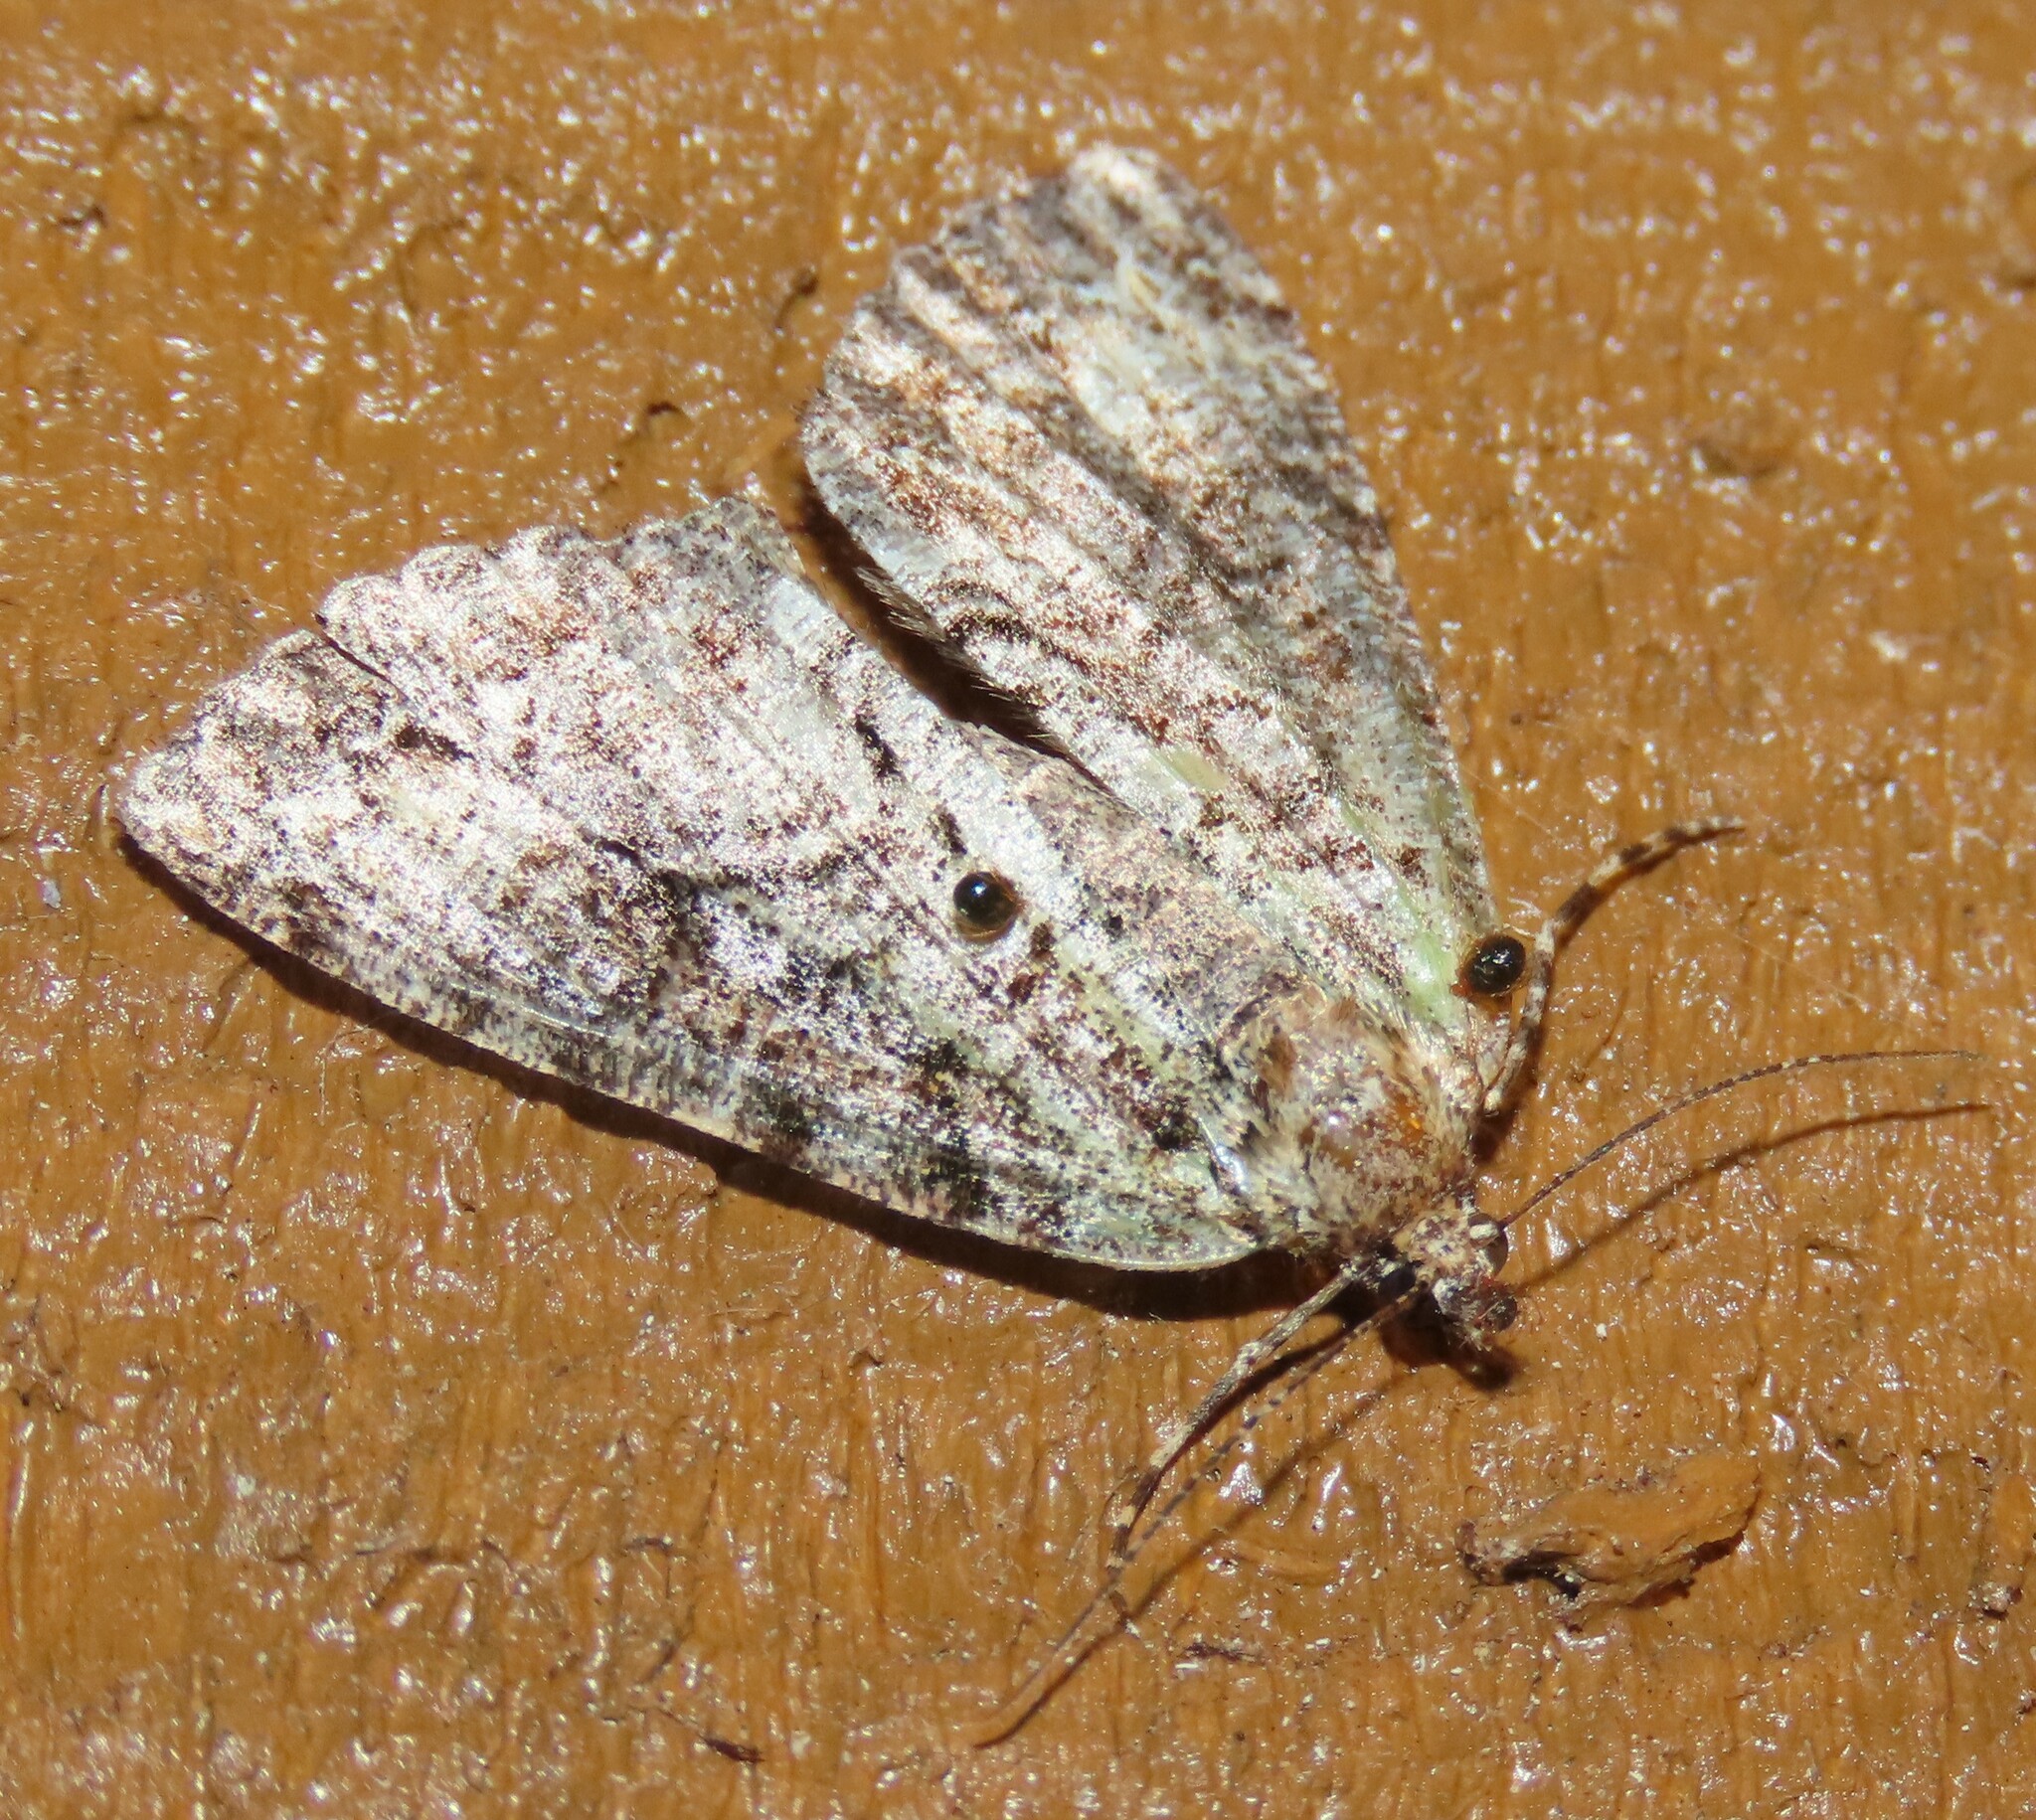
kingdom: Animalia
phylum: Arthropoda
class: Insecta
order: Lepidoptera
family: Geometridae
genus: Pseudocoremia
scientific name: Pseudocoremia suavis
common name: Common forest looper
